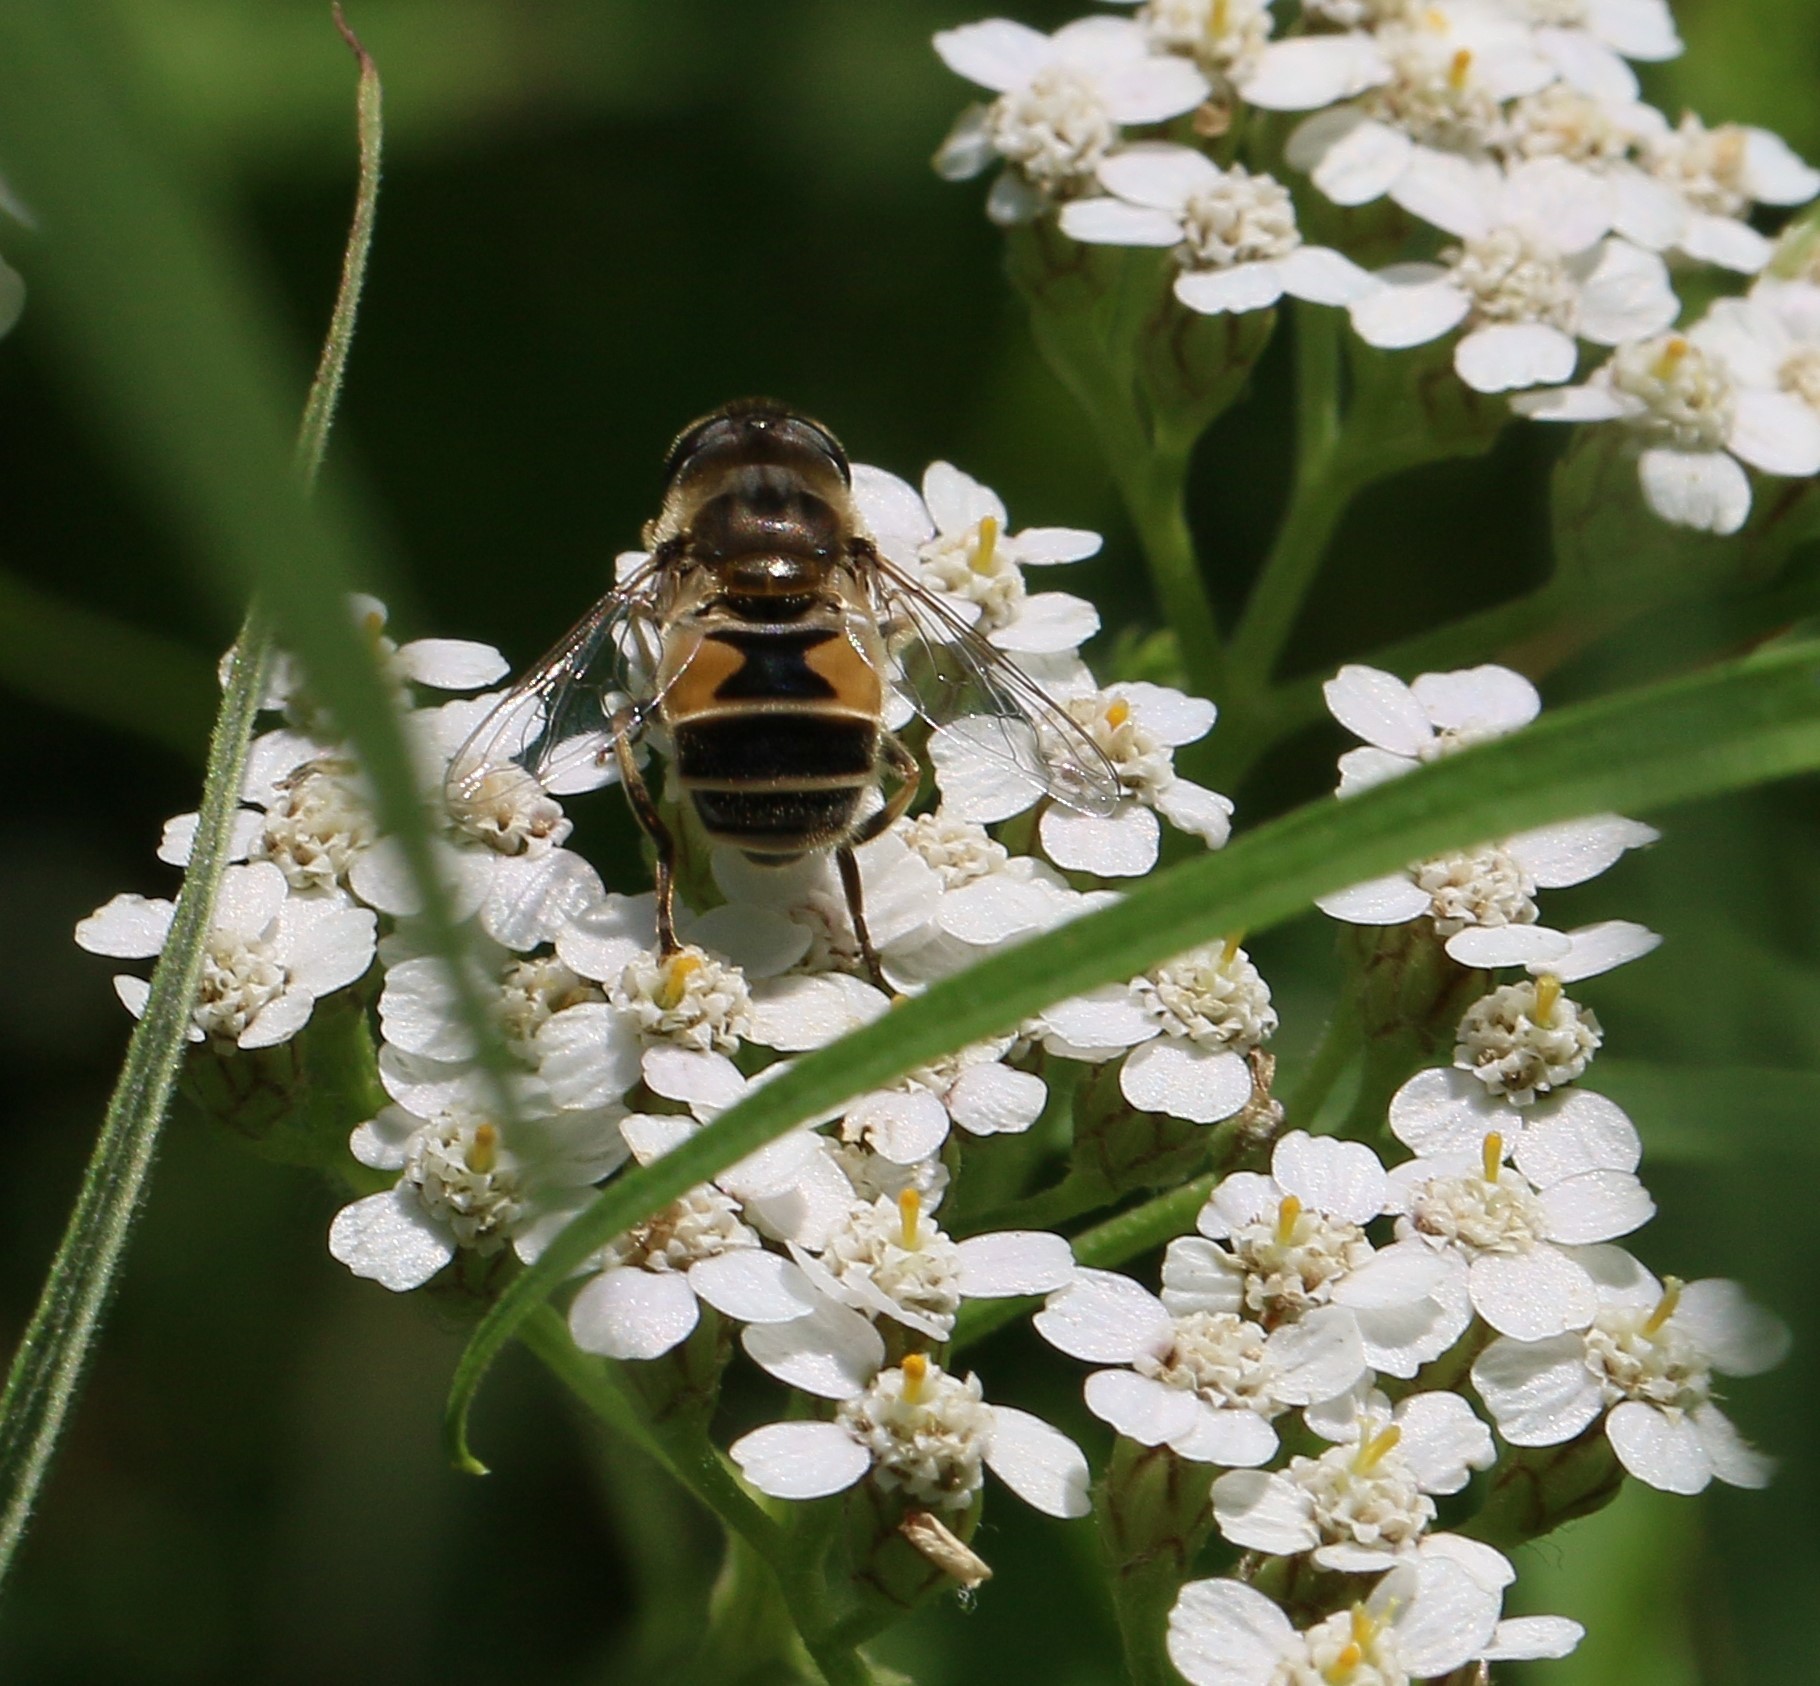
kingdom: Animalia
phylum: Arthropoda
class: Insecta
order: Diptera
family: Syrphidae
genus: Eristalis
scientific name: Eristalis arbustorum
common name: Hover fly
